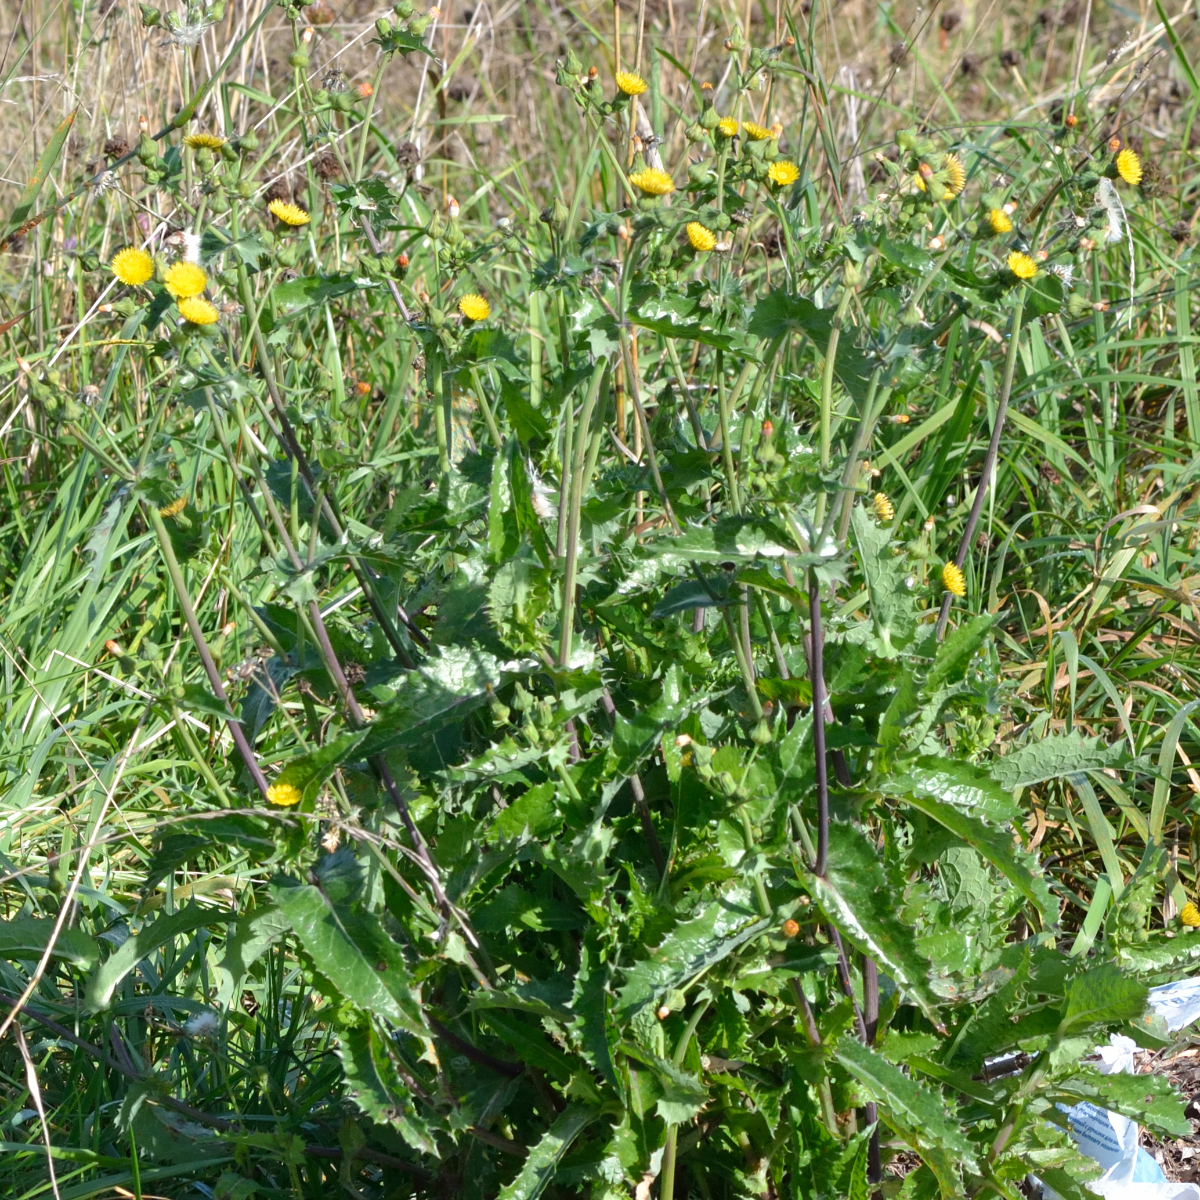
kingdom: Plantae
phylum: Tracheophyta
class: Magnoliopsida
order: Asterales
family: Asteraceae
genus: Sonchus
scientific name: Sonchus asper
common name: Prickly sow-thistle
